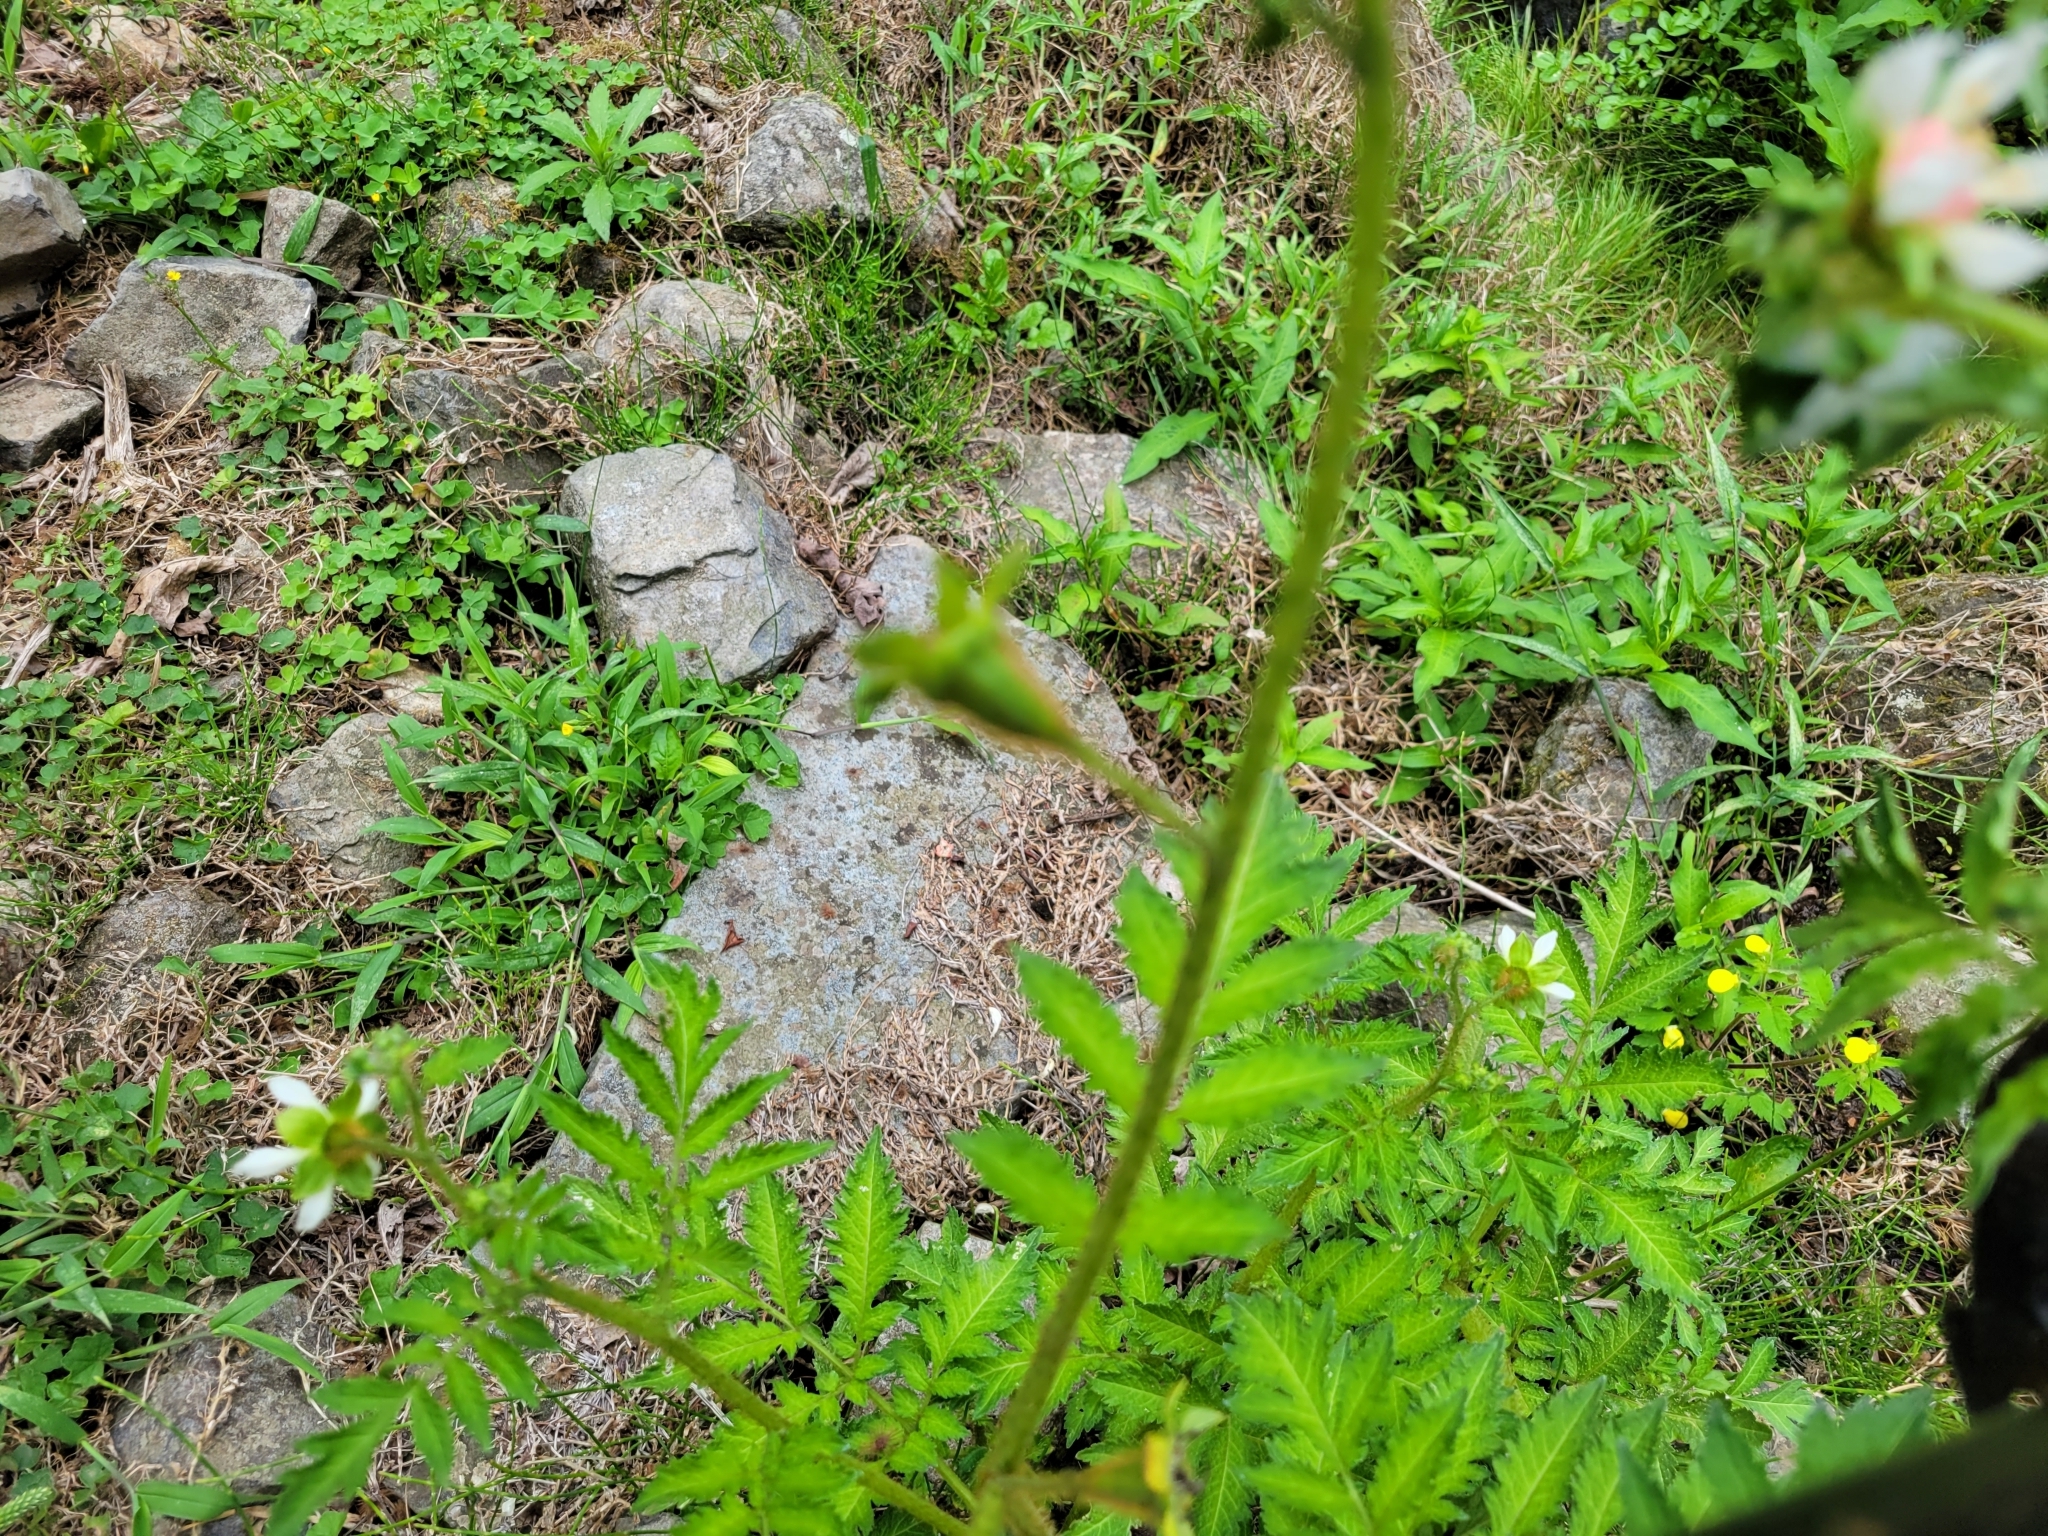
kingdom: Plantae
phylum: Tracheophyta
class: Magnoliopsida
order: Cornales
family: Loasaceae
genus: Nasa
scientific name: Nasa triphylla
